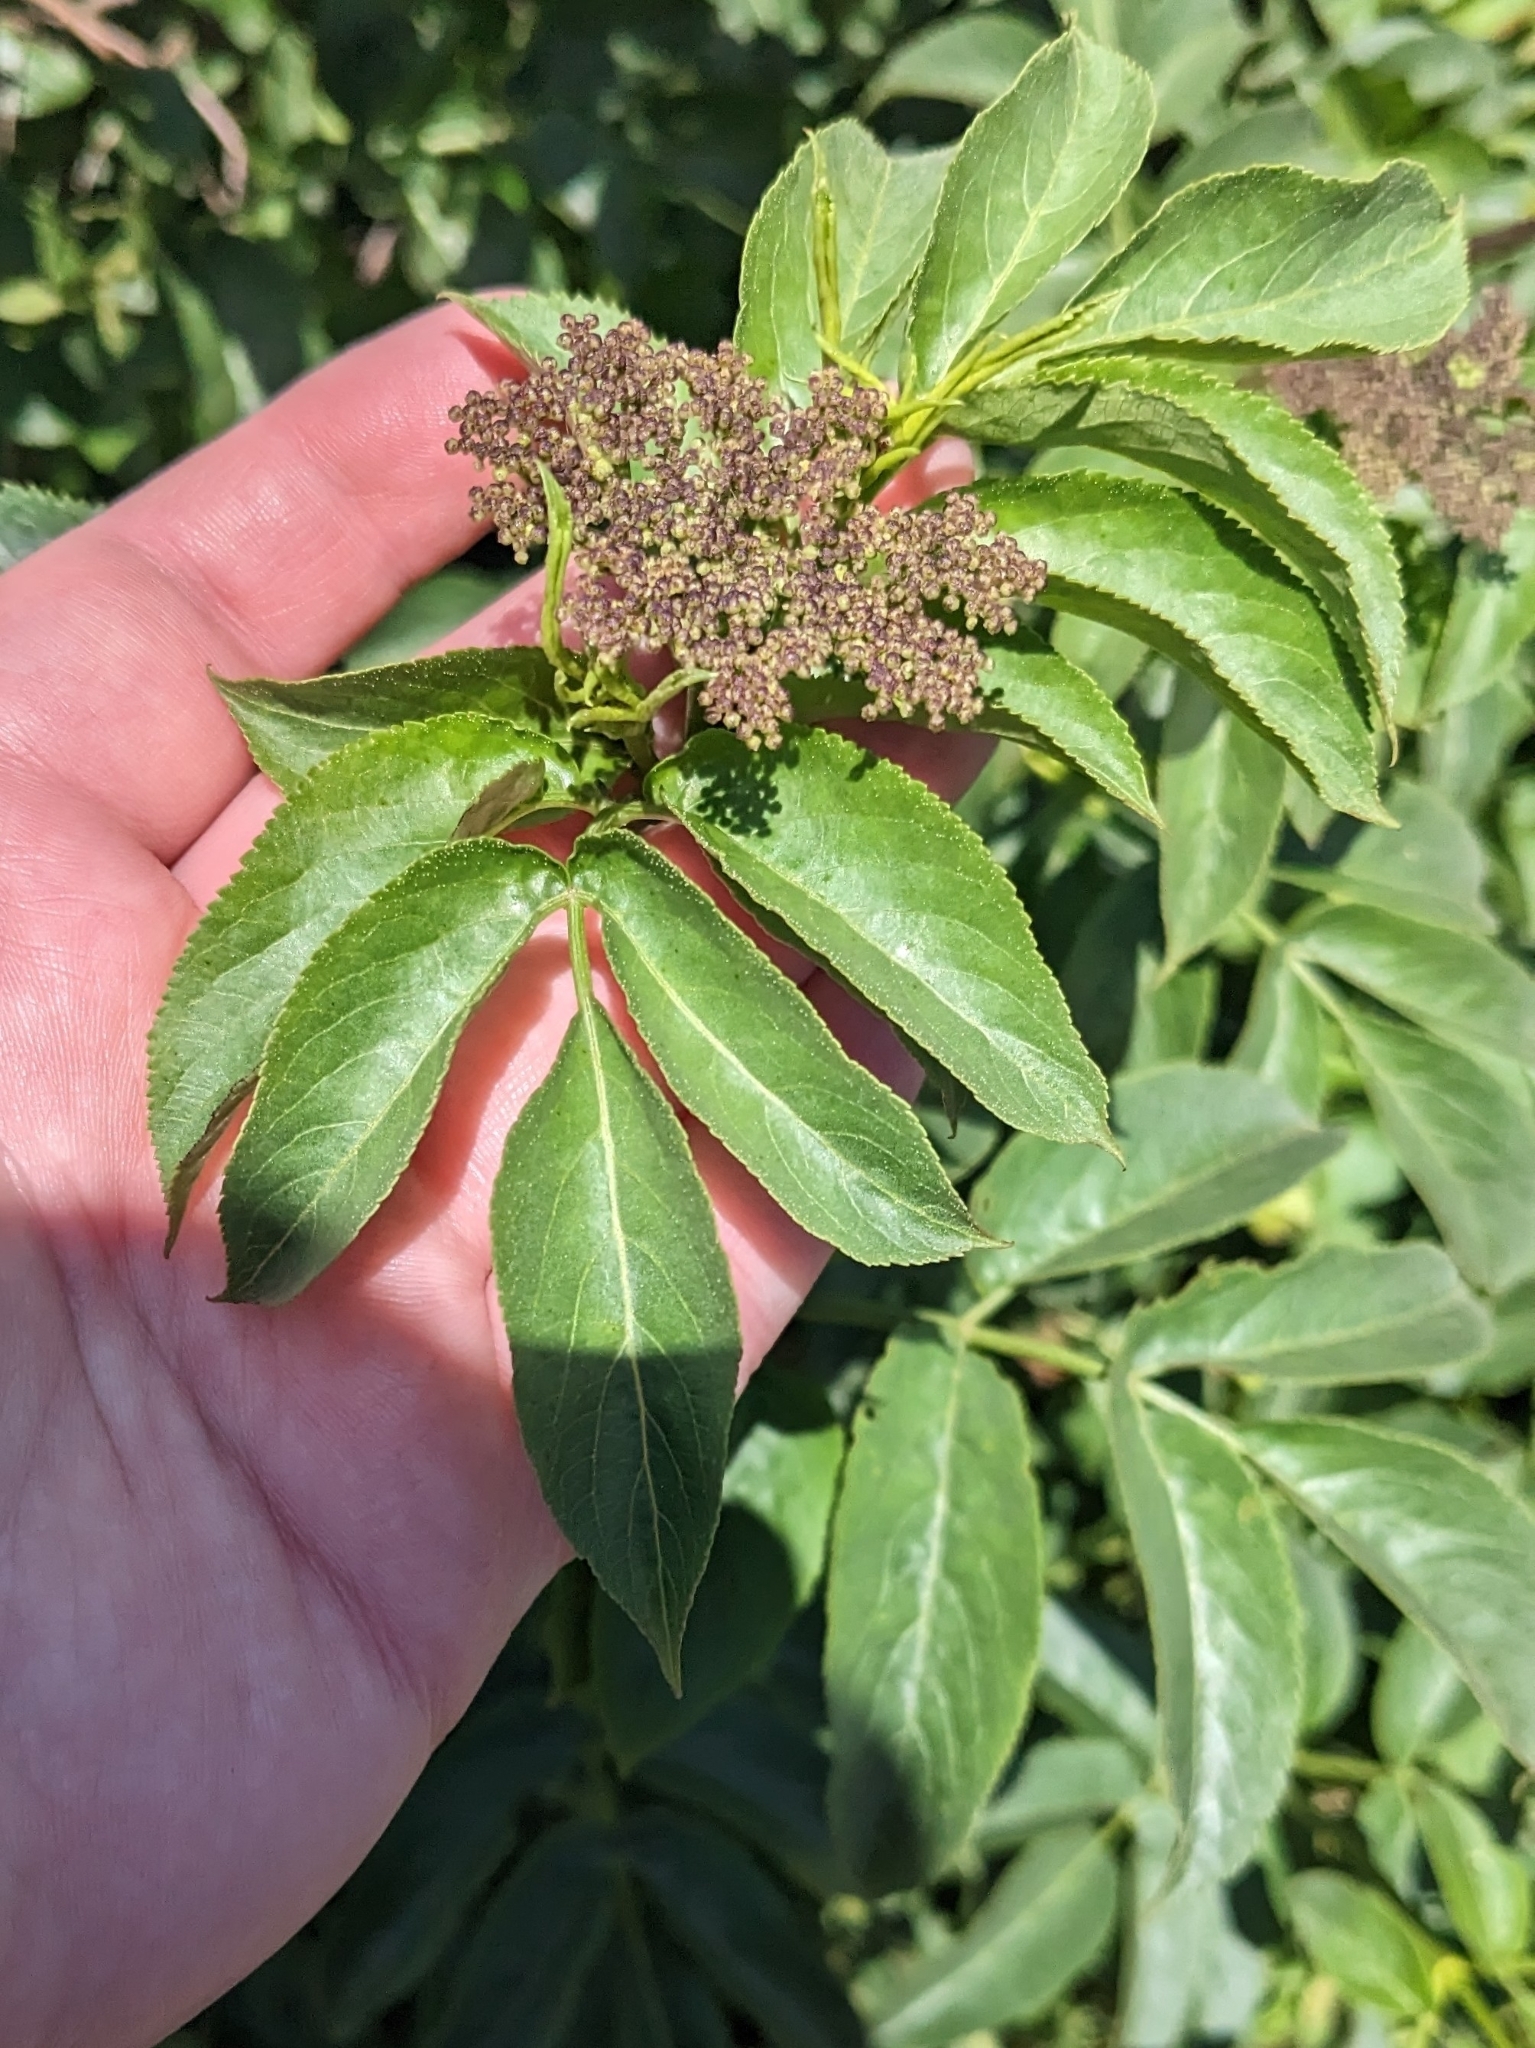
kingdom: Plantae
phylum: Tracheophyta
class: Magnoliopsida
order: Dipsacales
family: Viburnaceae
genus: Sambucus
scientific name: Sambucus cerulea
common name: Blue elder
